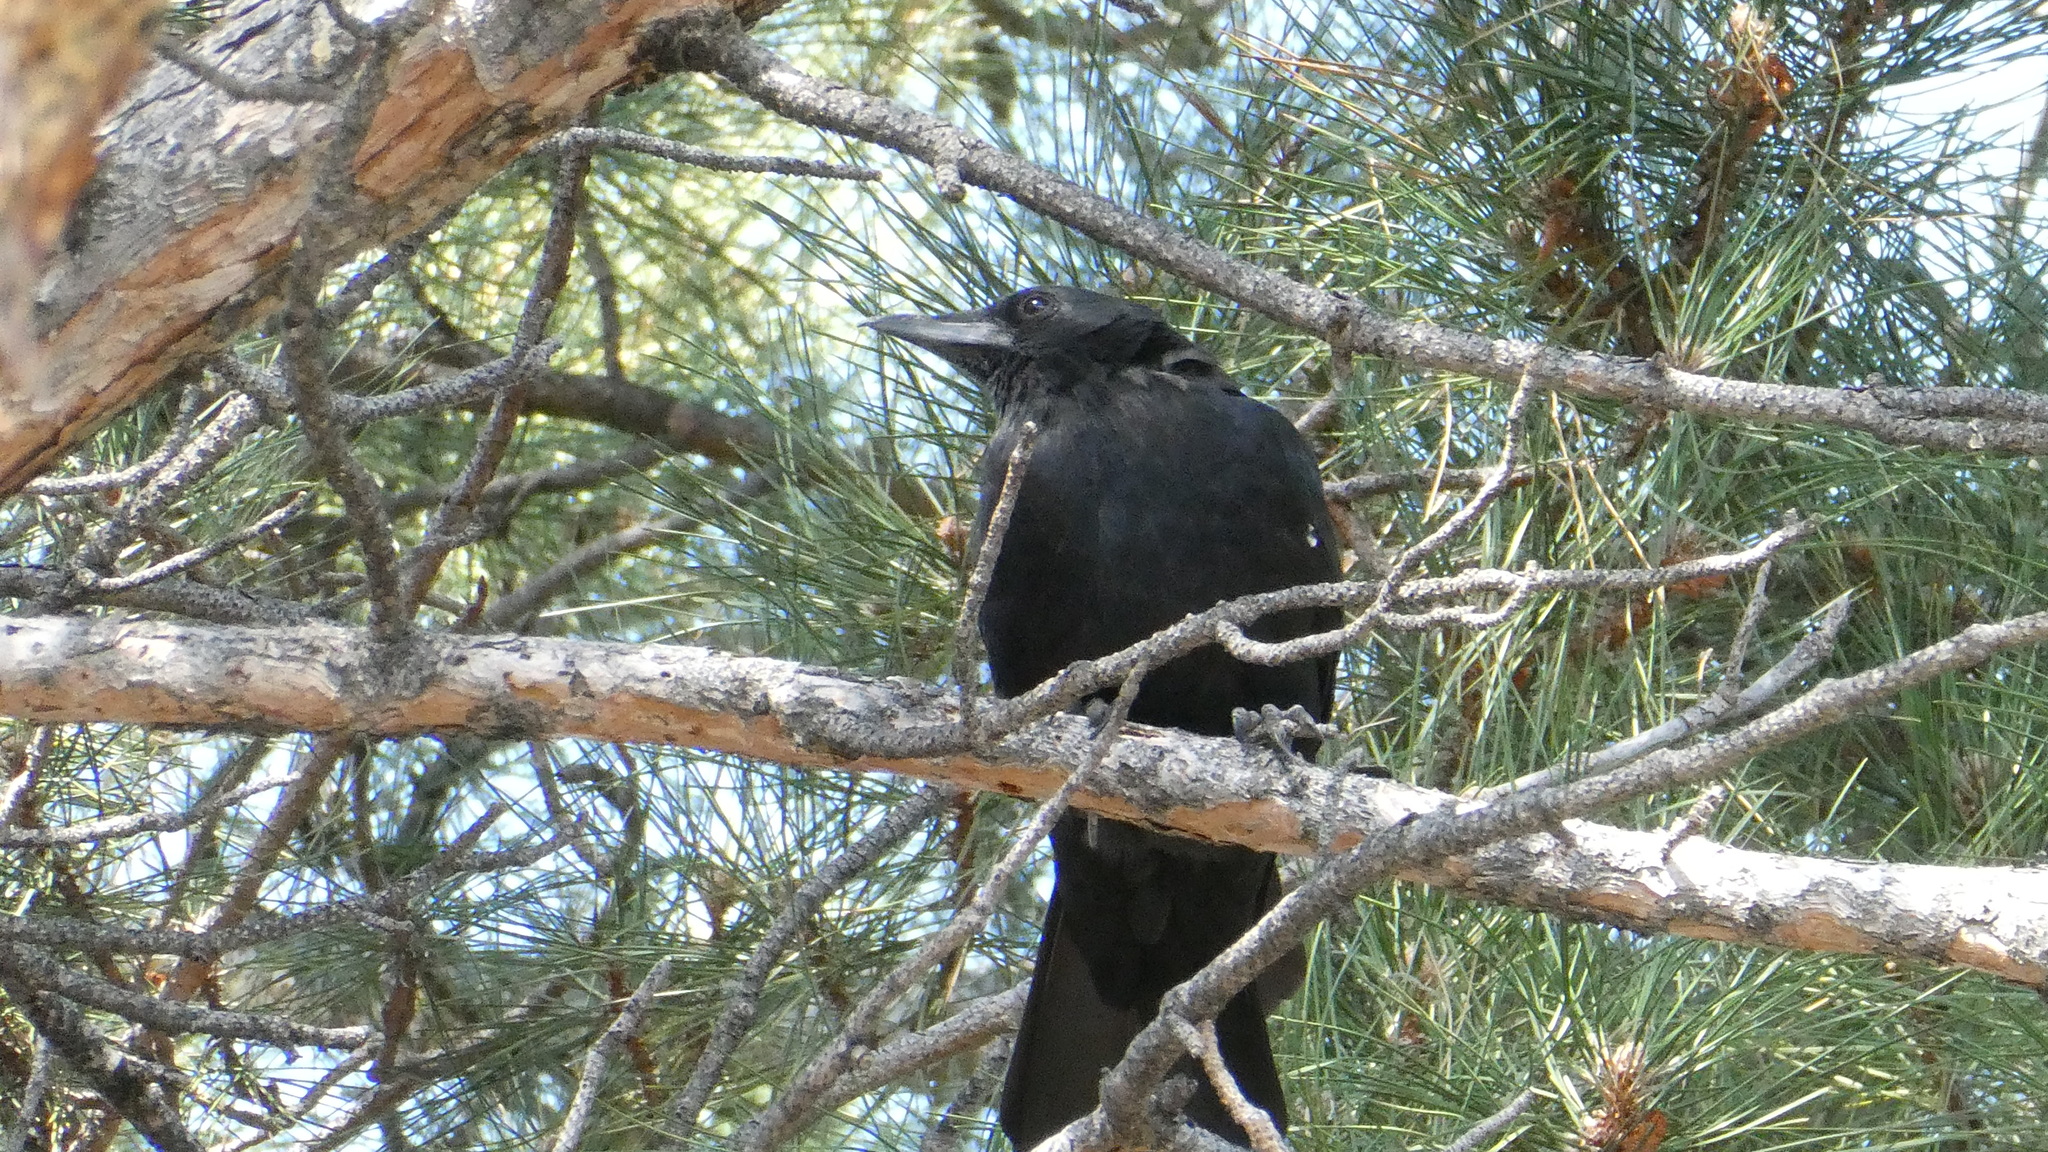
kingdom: Animalia
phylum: Chordata
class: Aves
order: Passeriformes
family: Corvidae
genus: Corvus
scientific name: Corvus brachyrhynchos
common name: American crow
